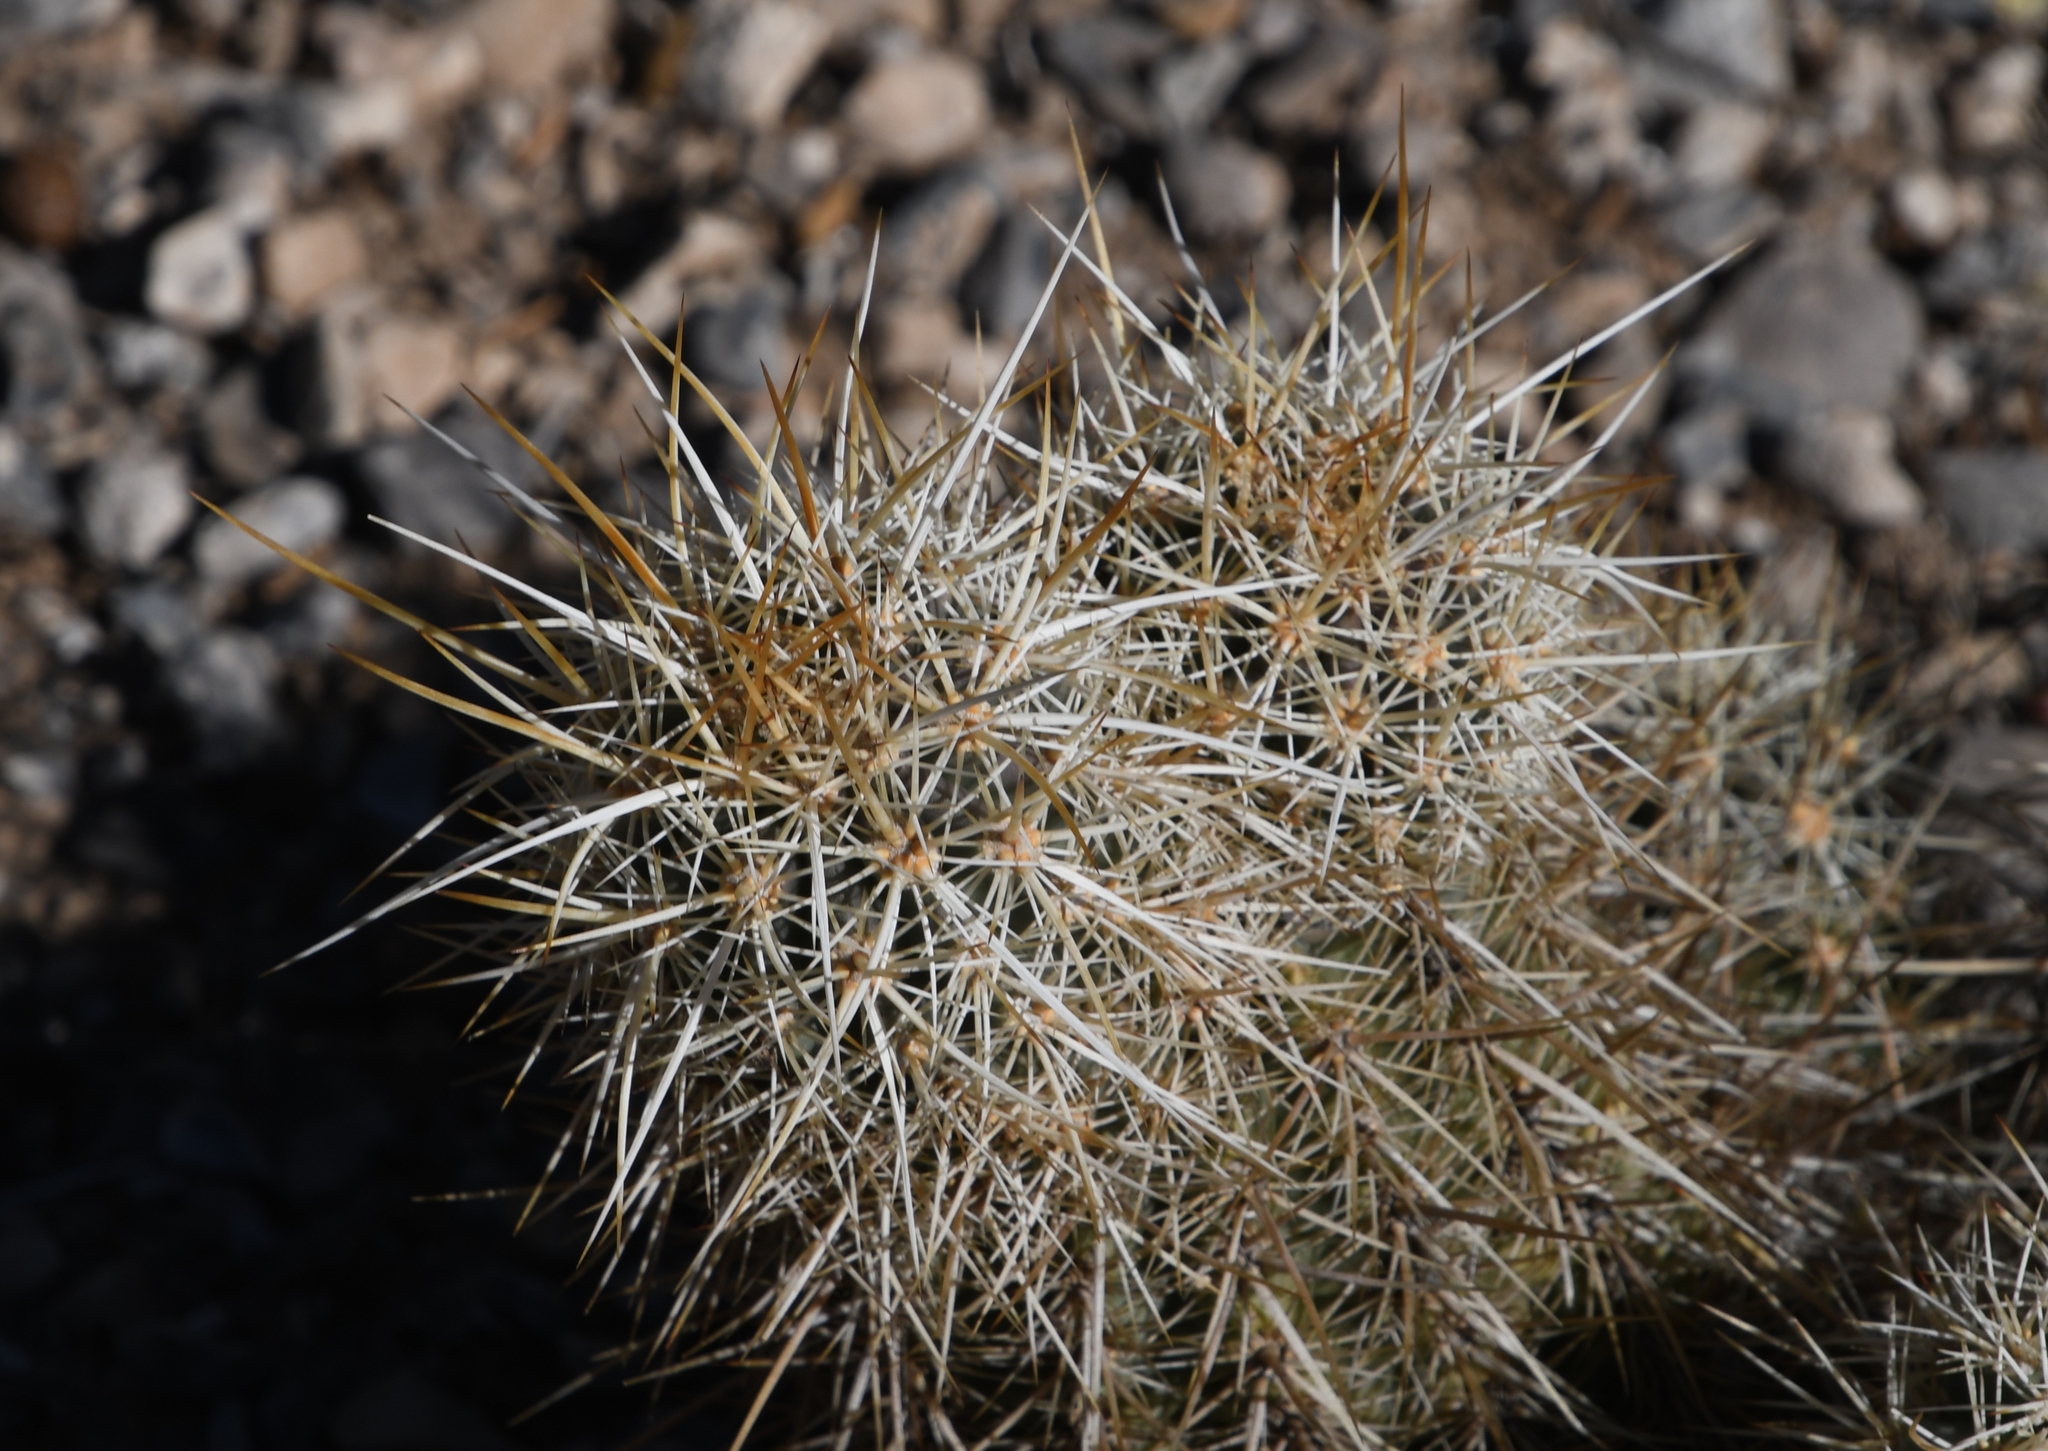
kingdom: Plantae
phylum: Tracheophyta
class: Magnoliopsida
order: Caryophyllales
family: Cactaceae
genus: Echinocereus
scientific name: Echinocereus engelmannii
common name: Engelmann's hedgehog cactus
